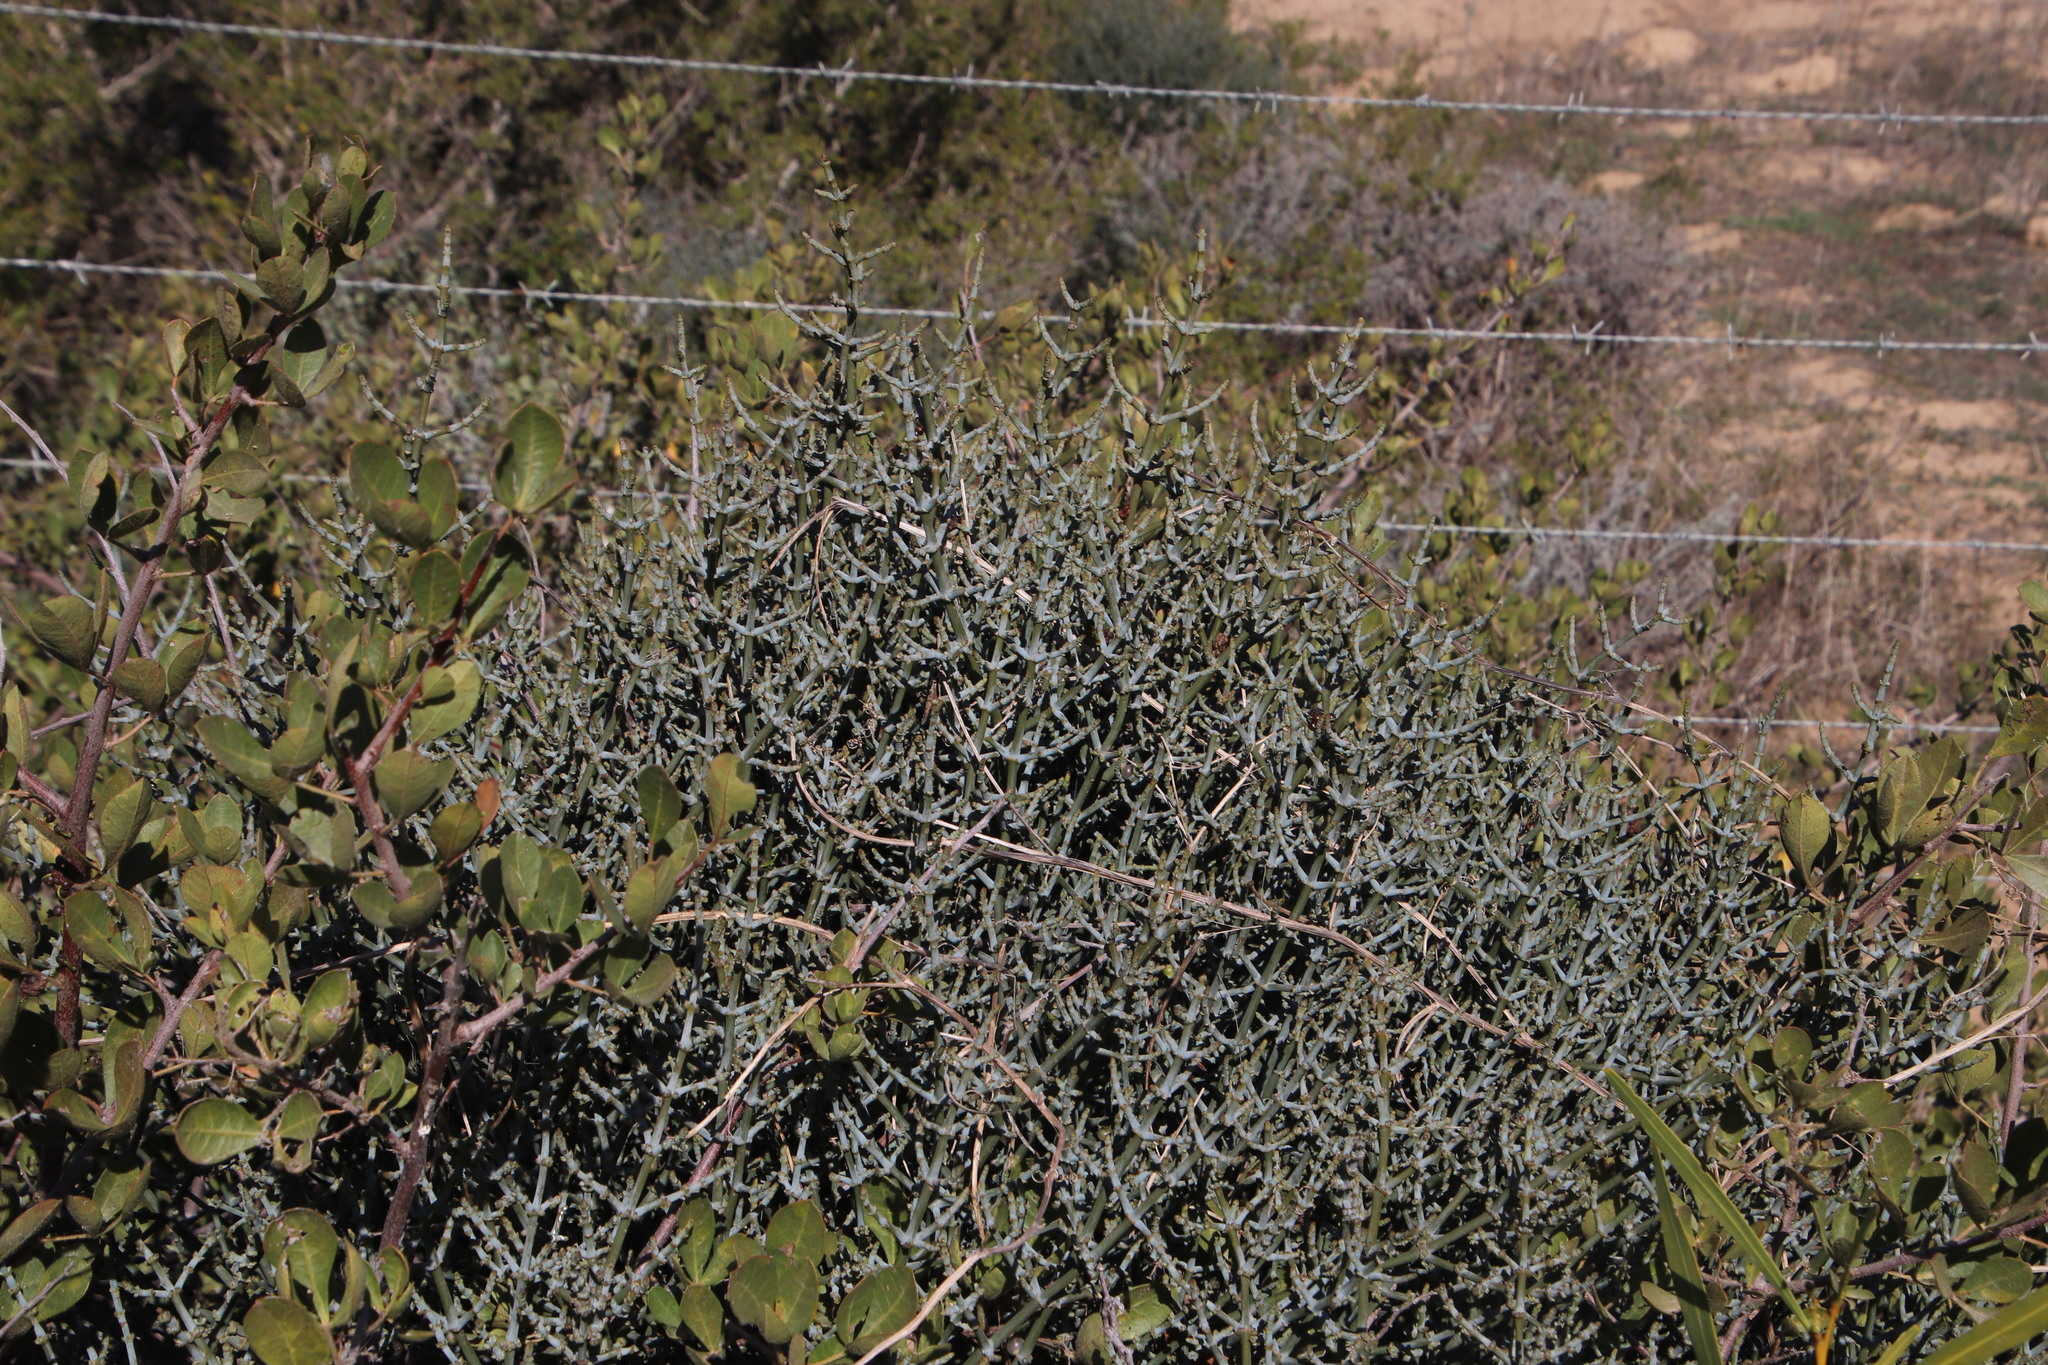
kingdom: Plantae
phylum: Tracheophyta
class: Magnoliopsida
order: Santalales
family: Viscaceae
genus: Viscum
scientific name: Viscum capense
